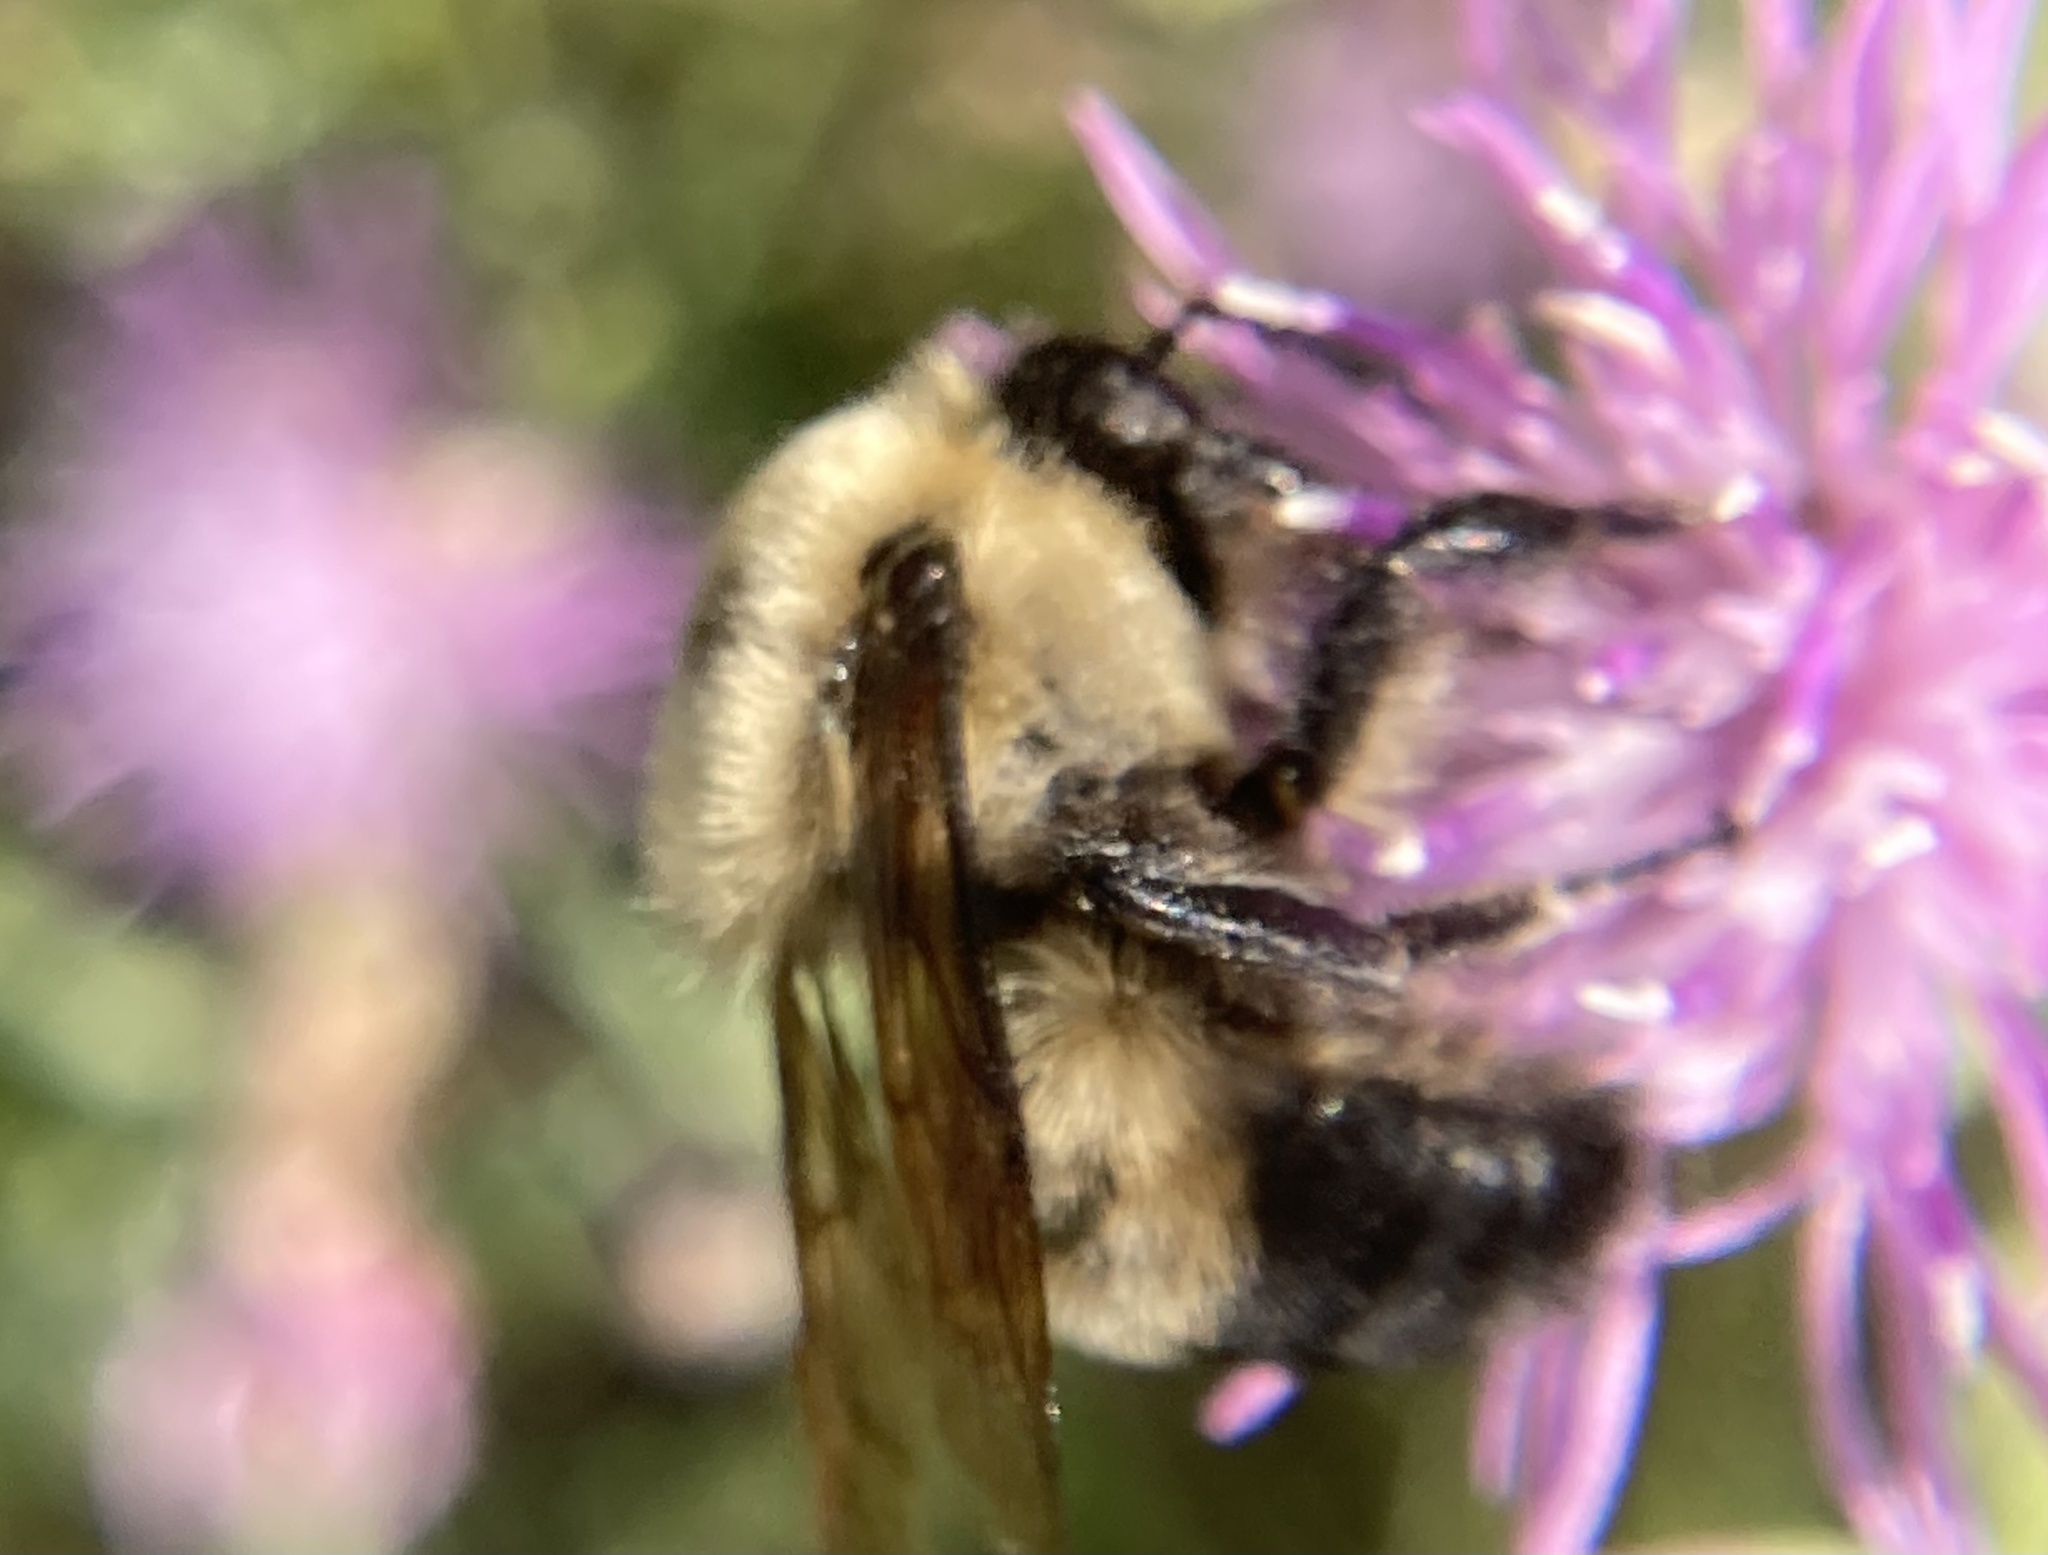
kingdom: Animalia
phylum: Arthropoda
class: Insecta
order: Hymenoptera
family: Apidae
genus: Bombus
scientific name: Bombus griseocollis
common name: Brown-belted bumble bee
